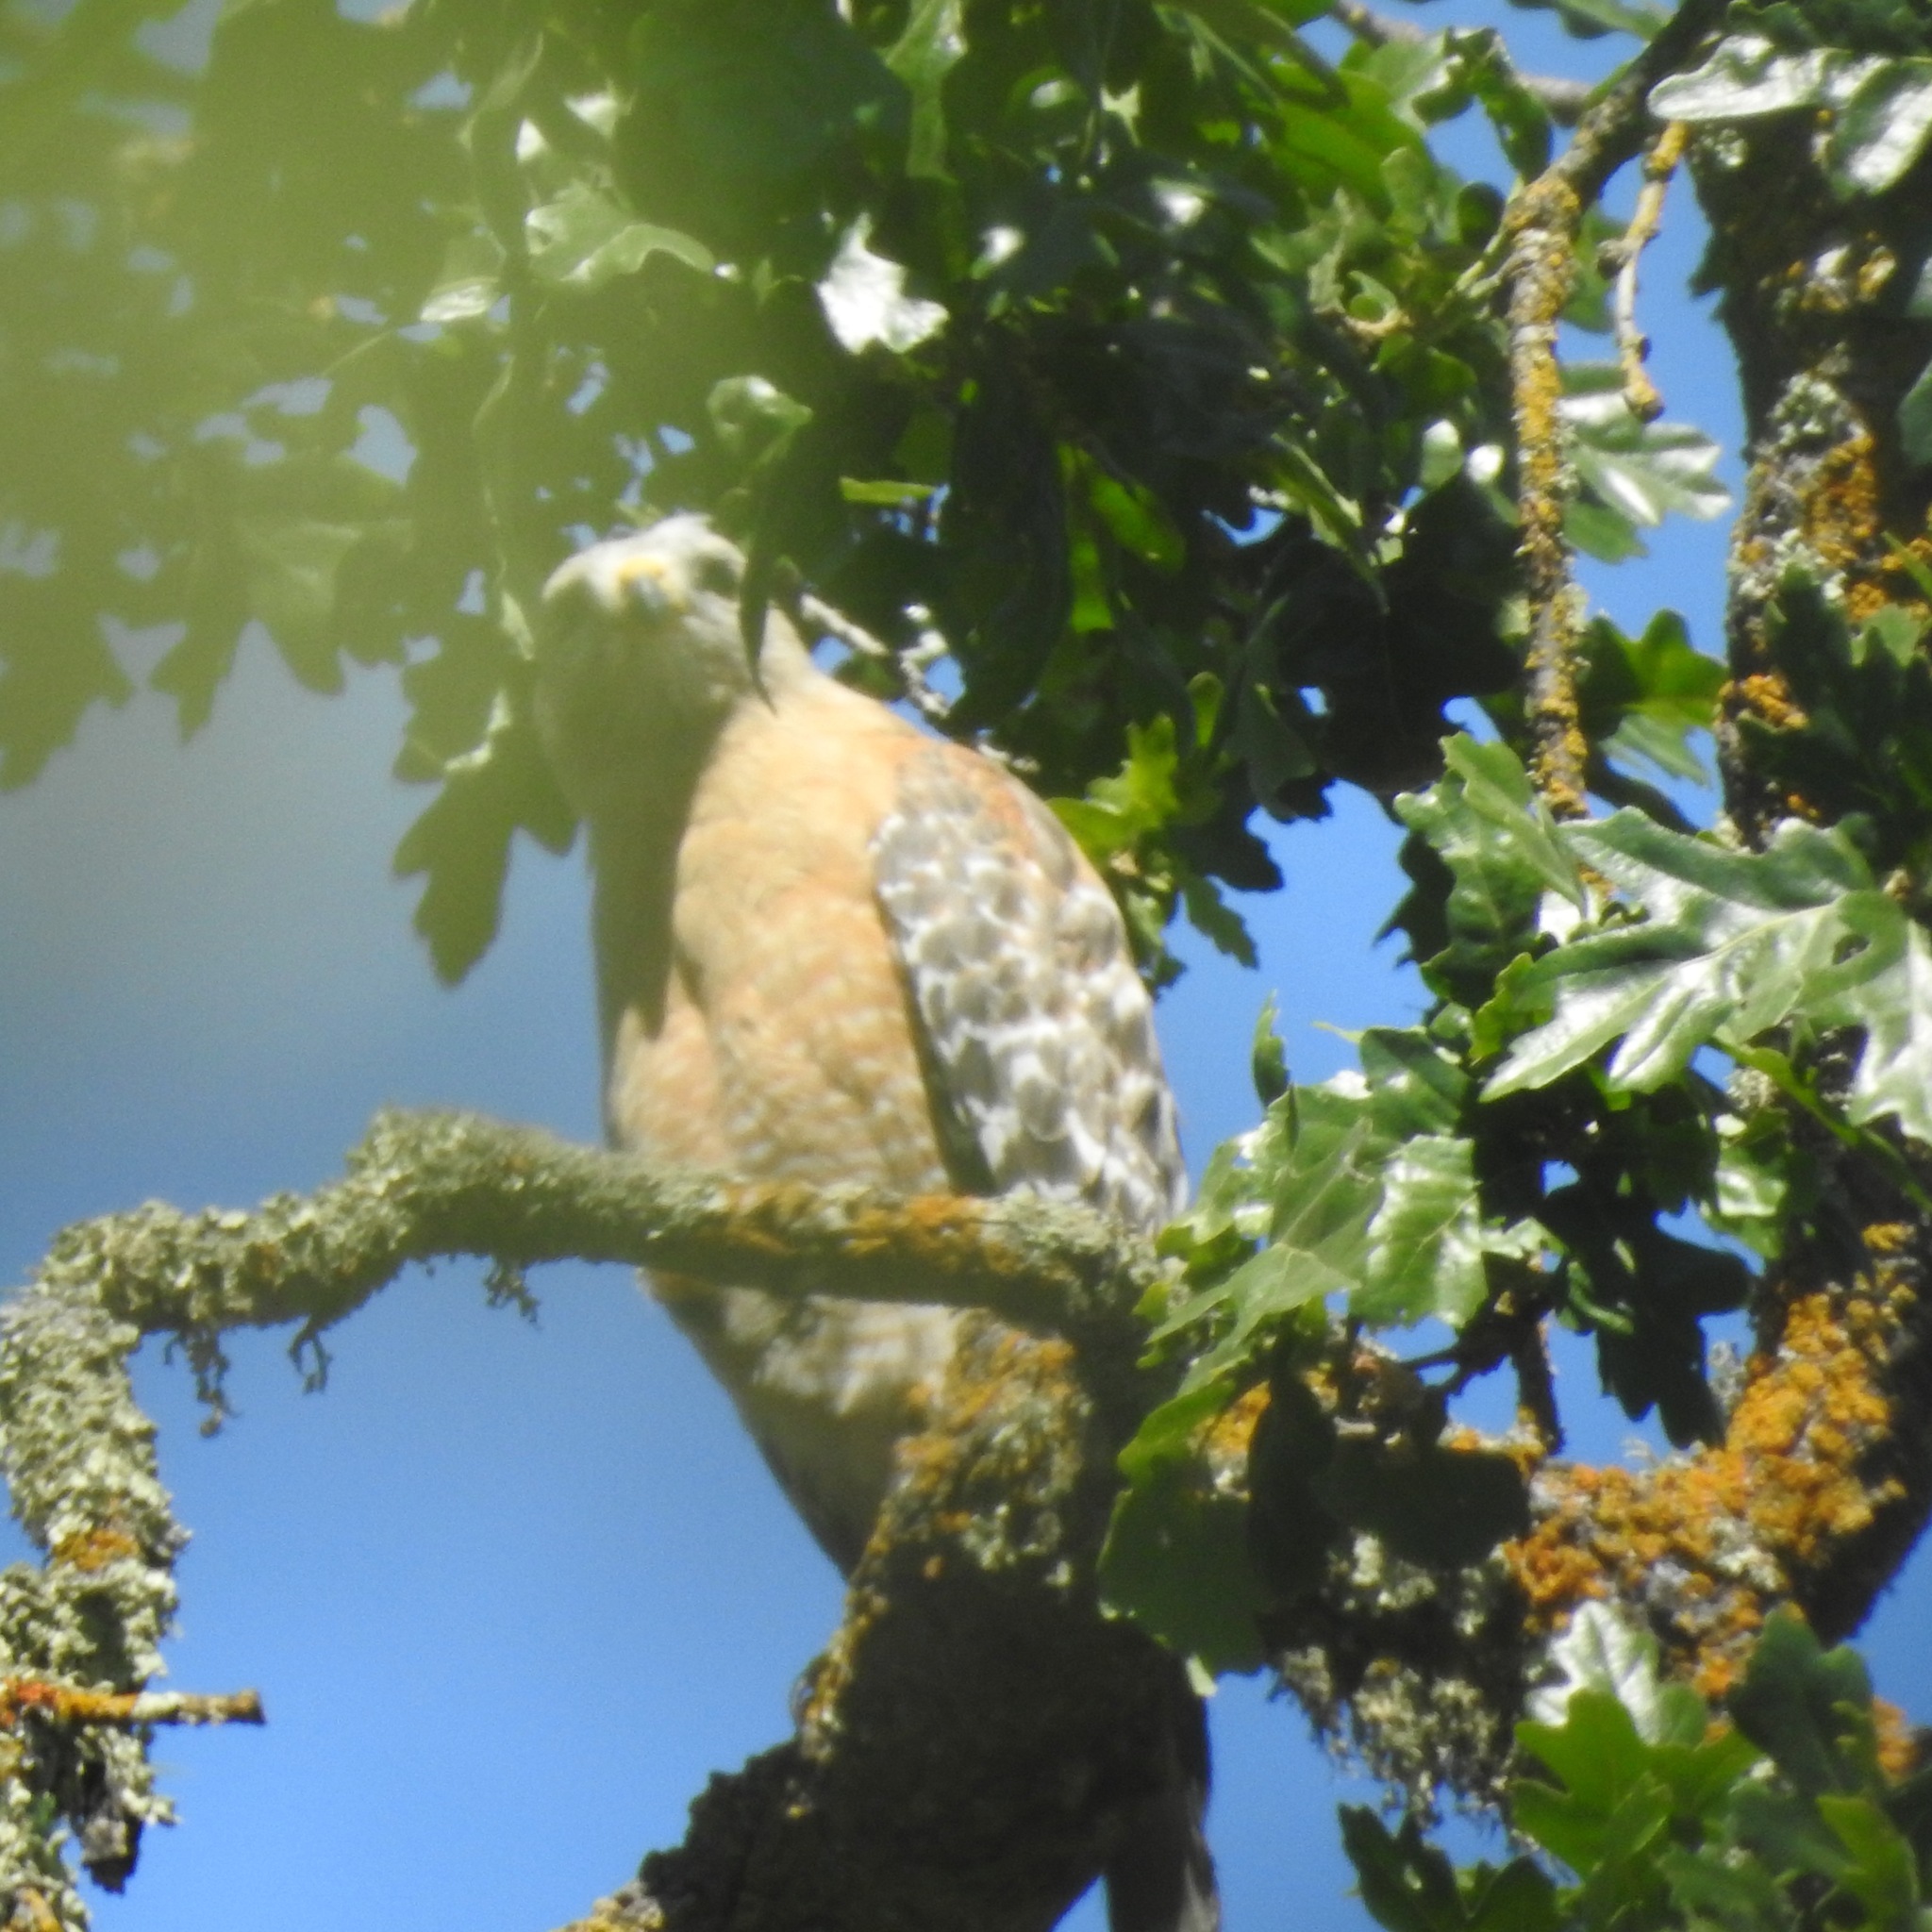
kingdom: Animalia
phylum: Chordata
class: Aves
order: Accipitriformes
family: Accipitridae
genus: Buteo
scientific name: Buteo lineatus
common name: Red-shouldered hawk
